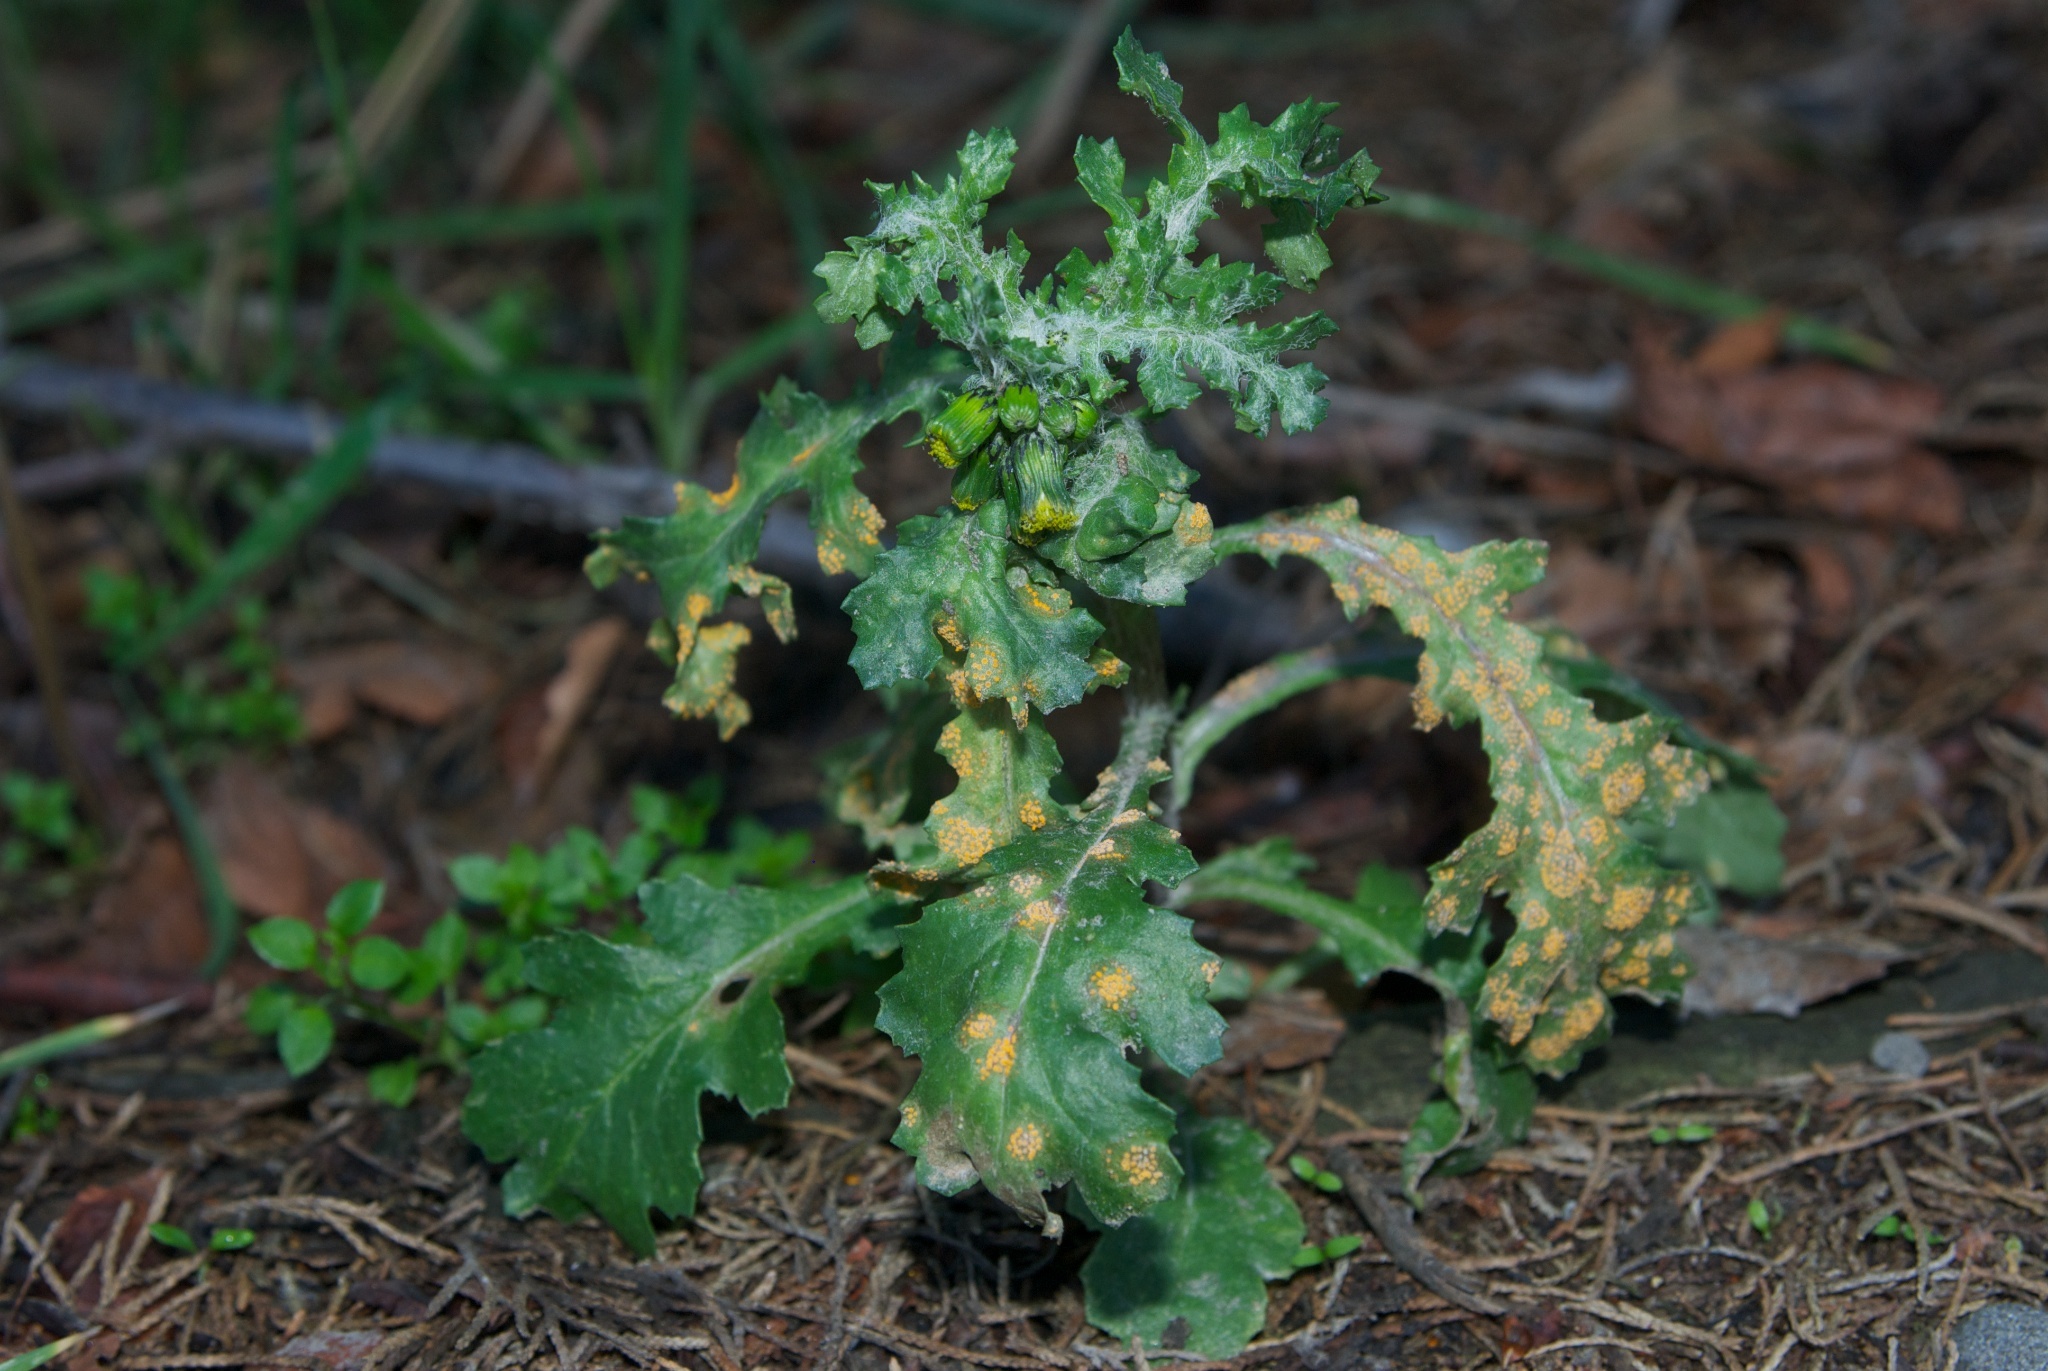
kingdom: Plantae
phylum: Tracheophyta
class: Magnoliopsida
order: Asterales
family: Asteraceae
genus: Senecio
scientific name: Senecio vulgaris
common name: Old-man-in-the-spring
